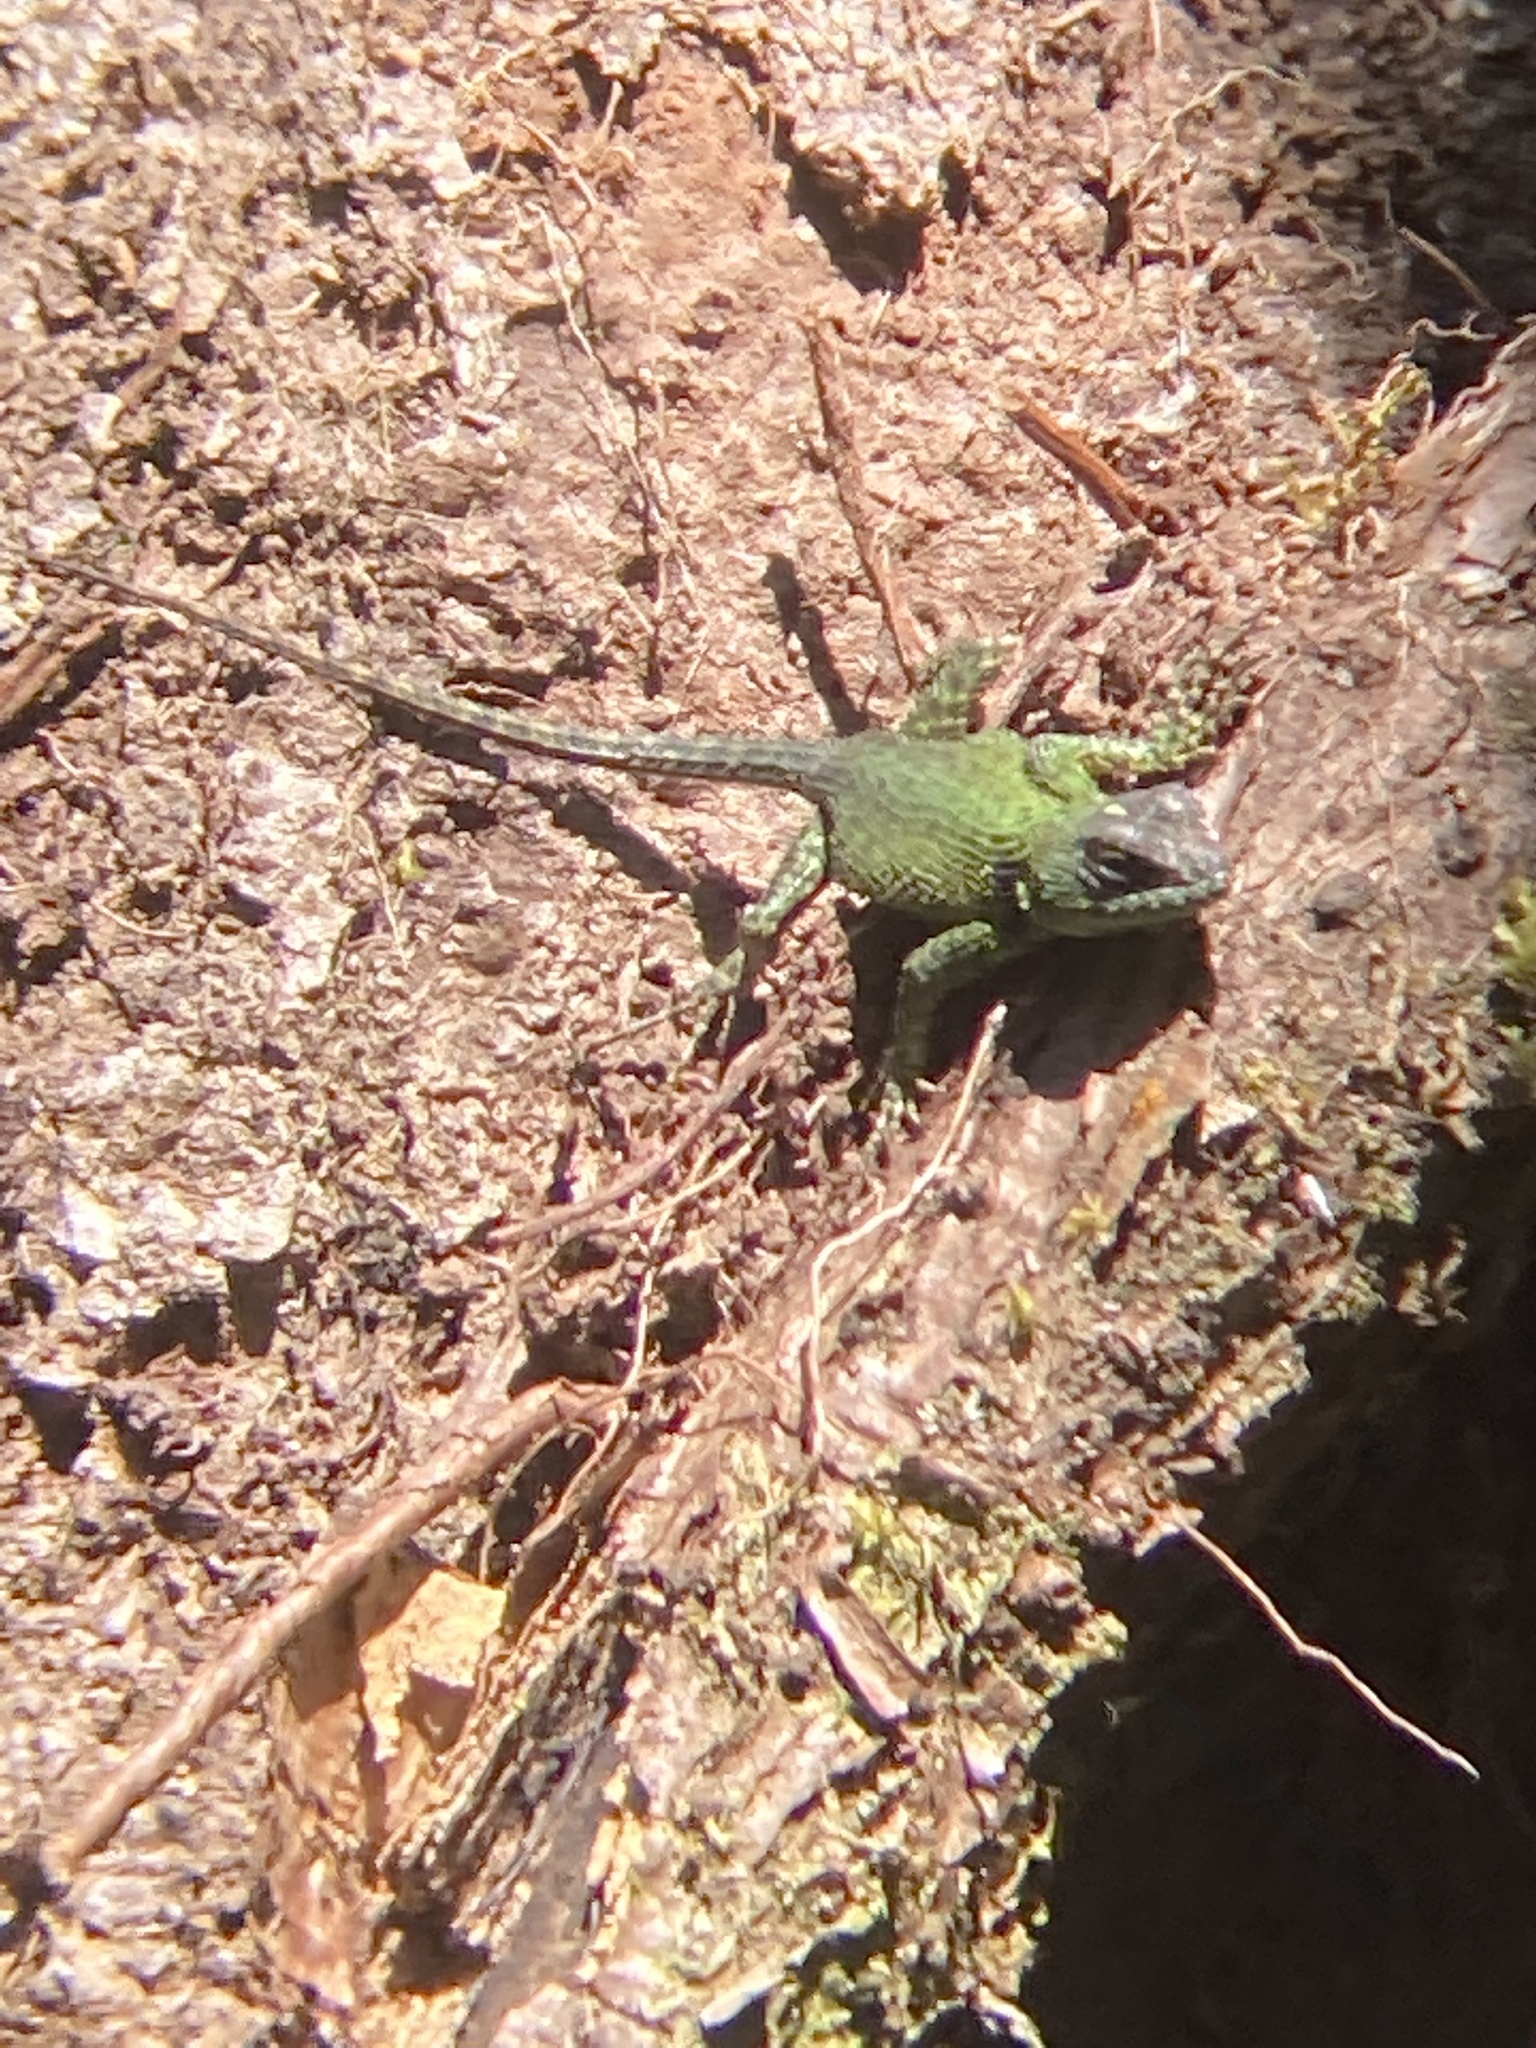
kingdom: Animalia
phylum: Chordata
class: Squamata
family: Phrynosomatidae
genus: Sceloporus
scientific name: Sceloporus taeniocnemis
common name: Guatemalan emerald spiny lizard
